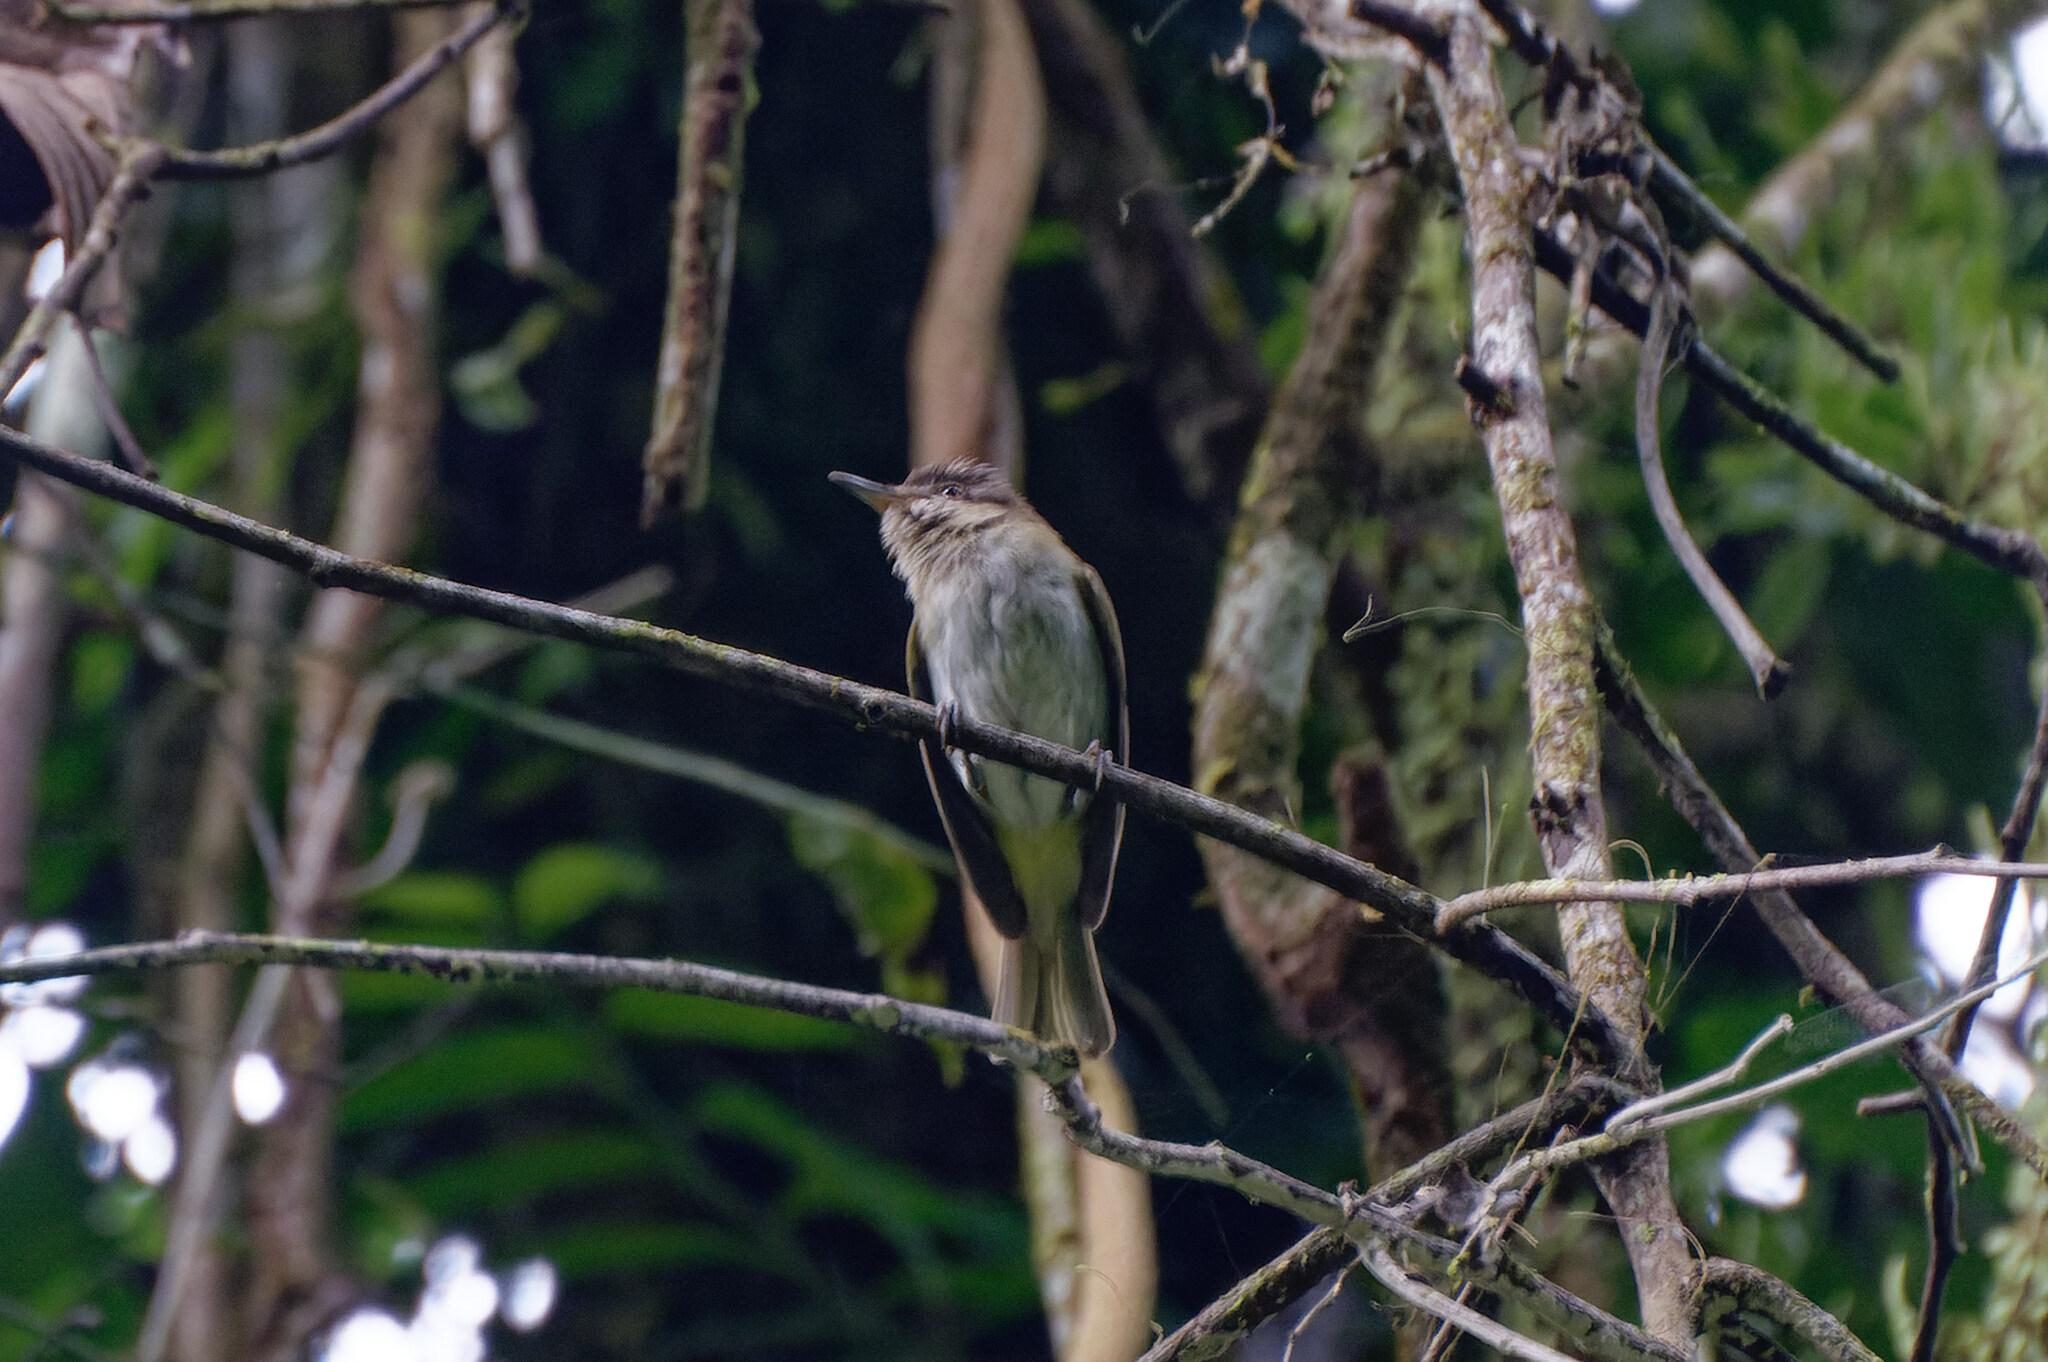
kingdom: Animalia
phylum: Chordata
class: Aves
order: Passeriformes
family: Vireonidae
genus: Vireo
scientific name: Vireo altiloquus
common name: Black-whiskered vireo
